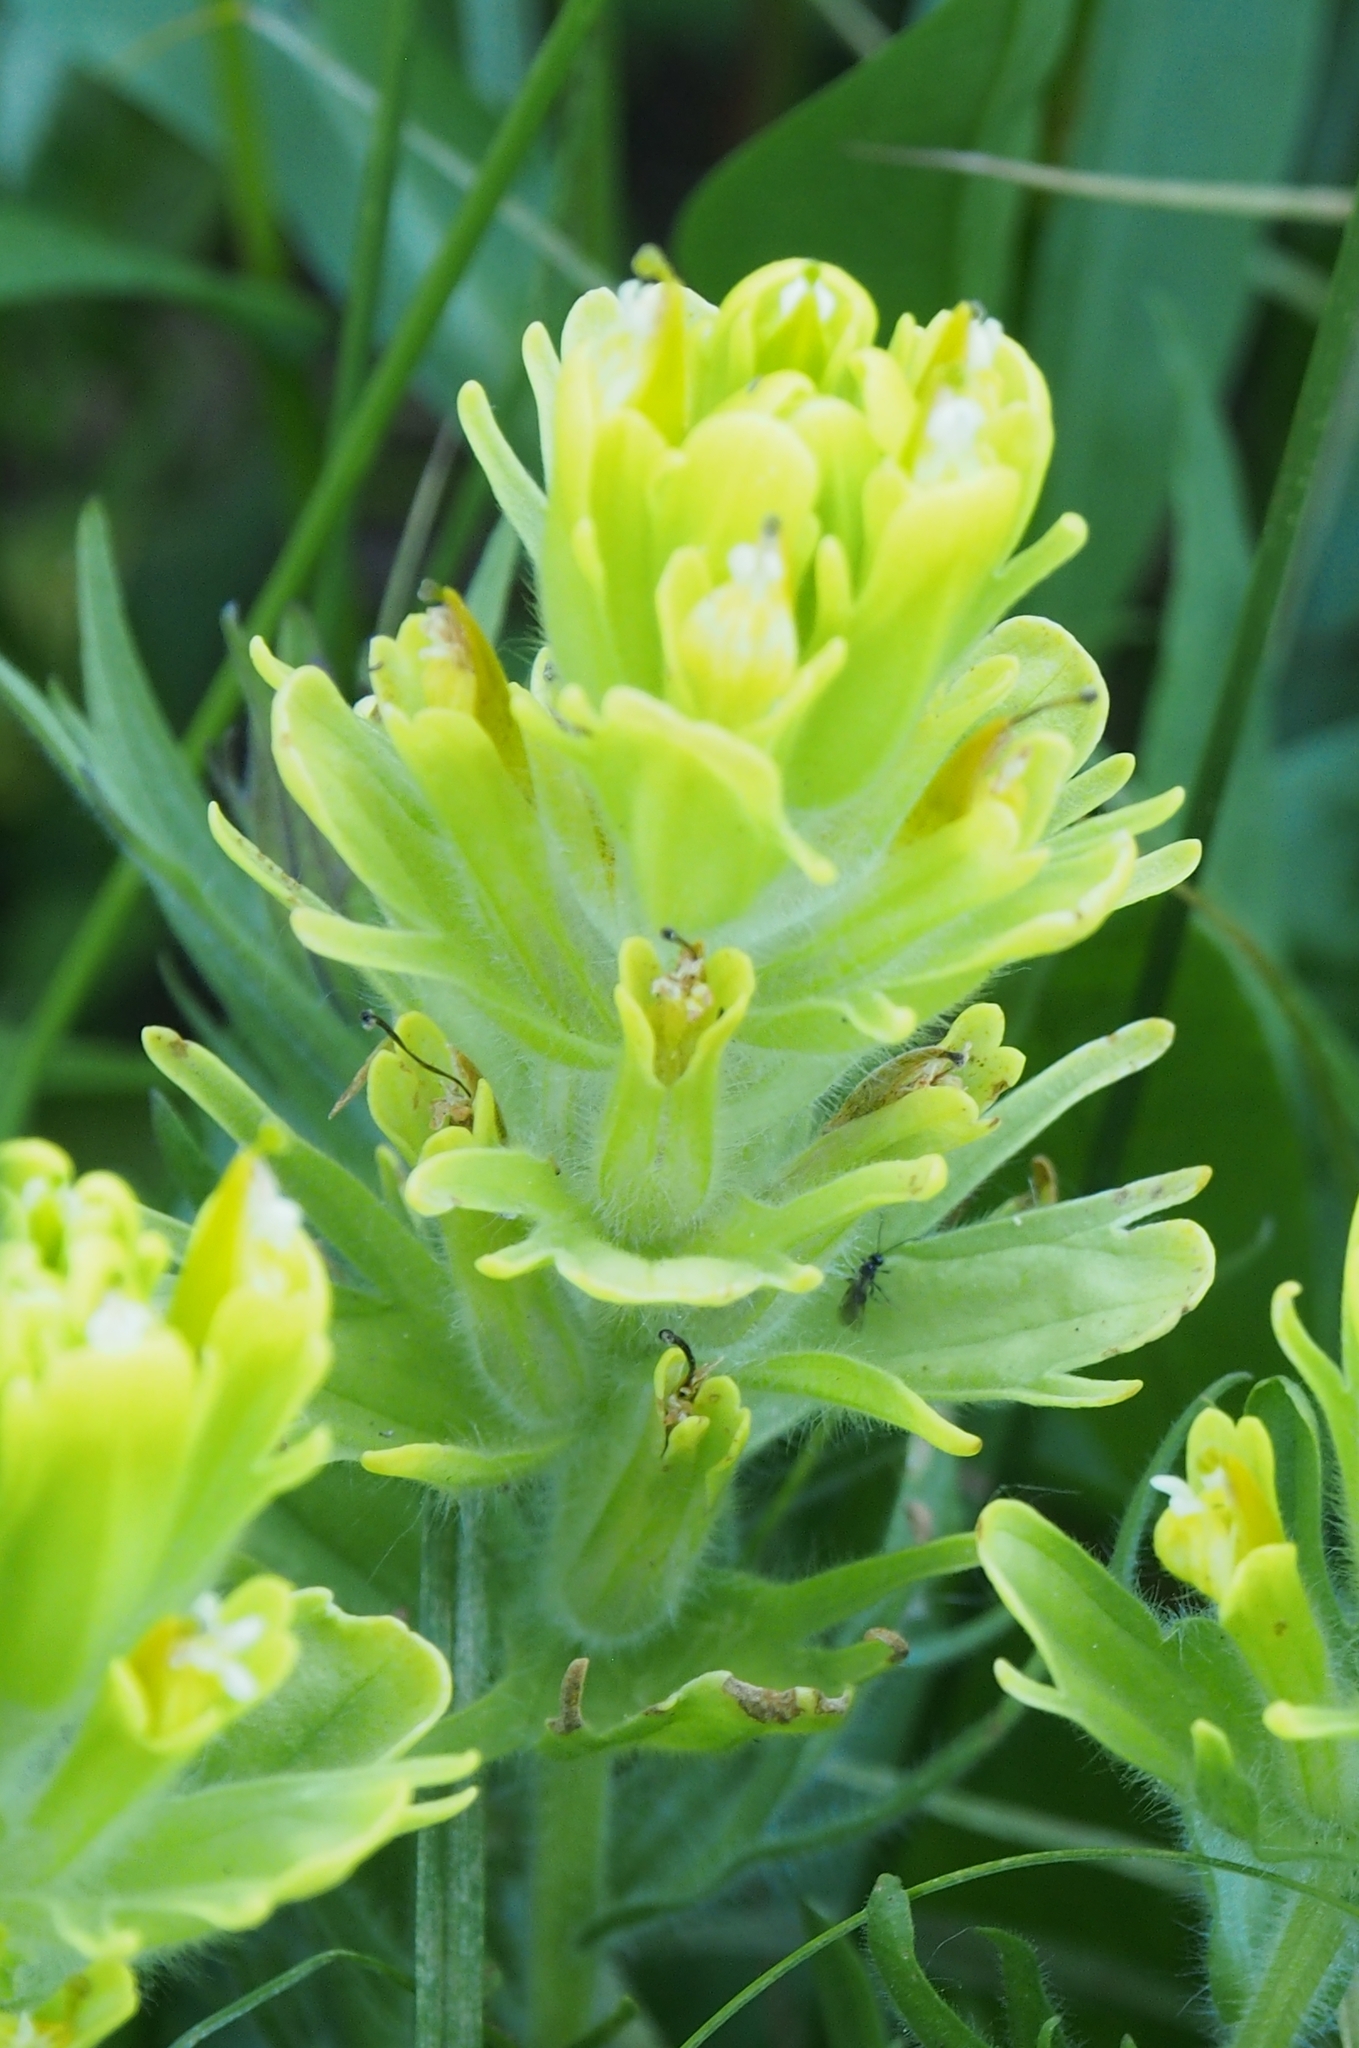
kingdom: Plantae
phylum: Tracheophyta
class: Magnoliopsida
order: Lamiales
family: Orobanchaceae
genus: Castilleja
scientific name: Castilleja cusickii
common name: Cusick's paintbrush
